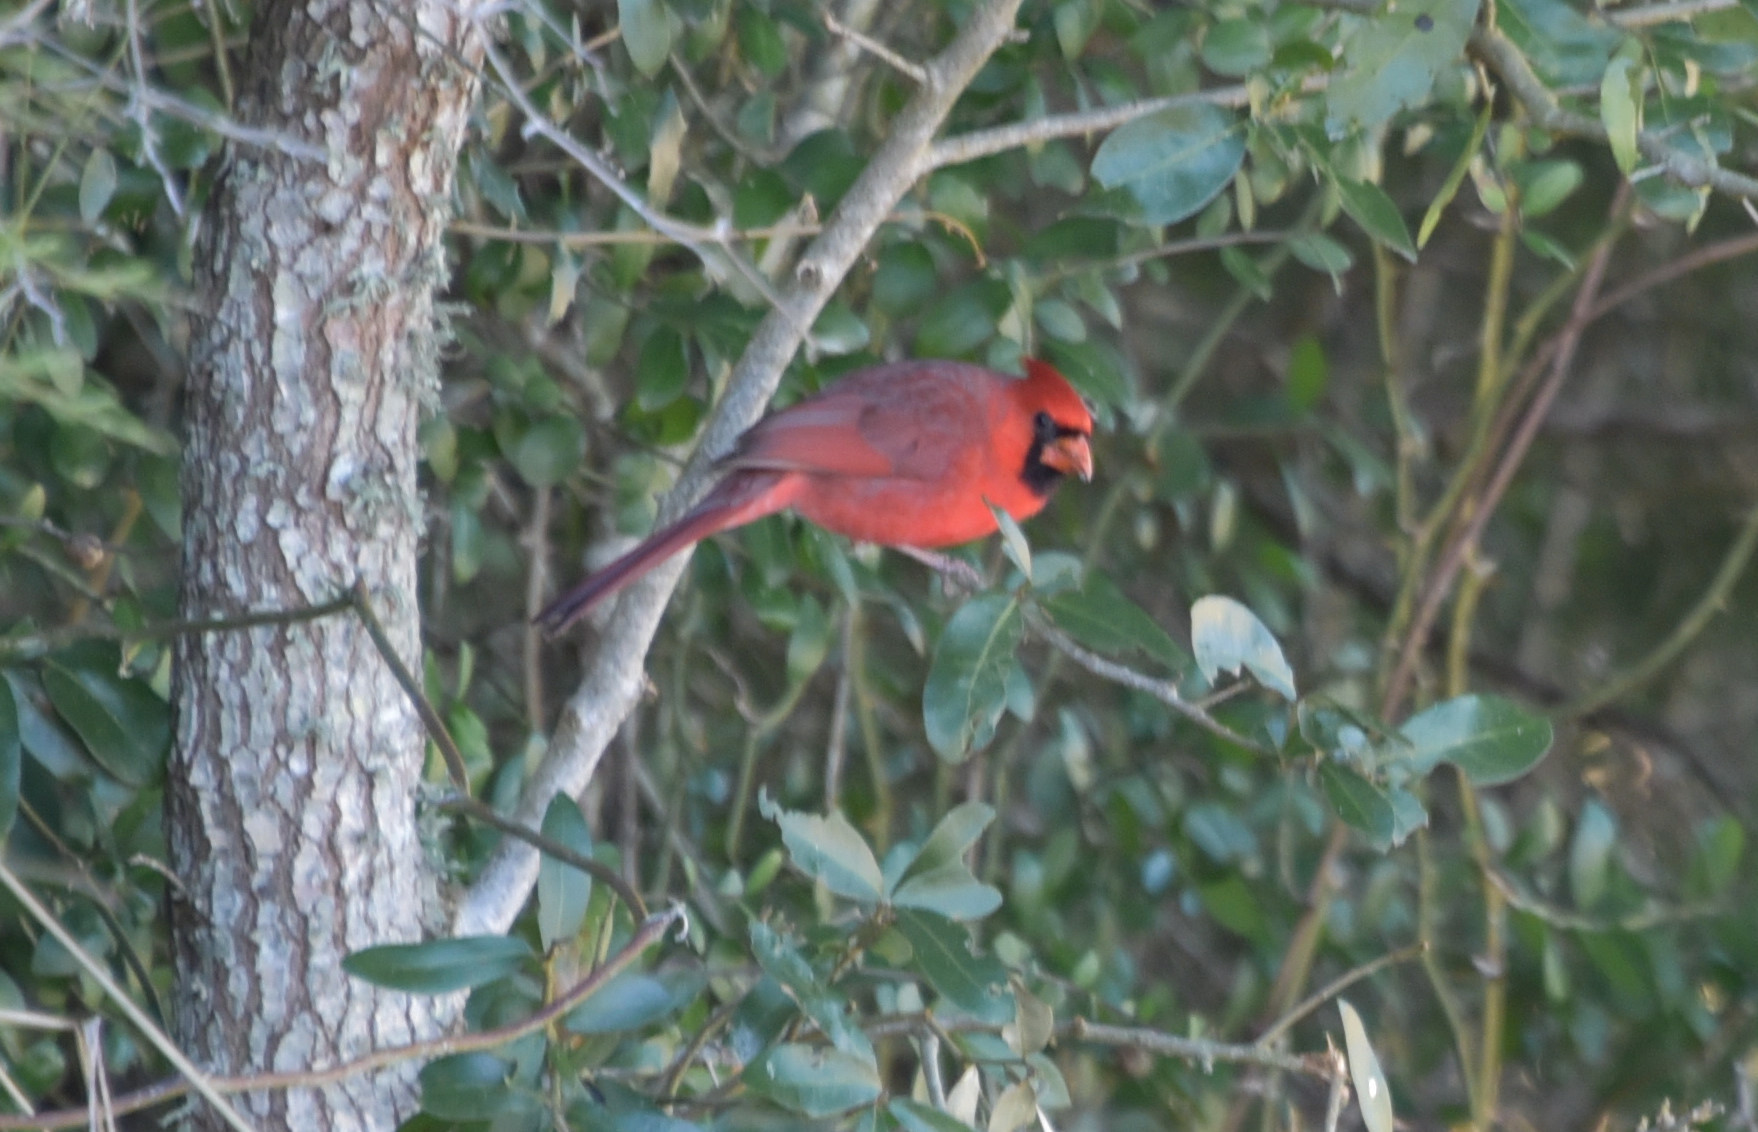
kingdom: Animalia
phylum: Chordata
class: Aves
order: Passeriformes
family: Cardinalidae
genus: Cardinalis
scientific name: Cardinalis cardinalis
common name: Northern cardinal
